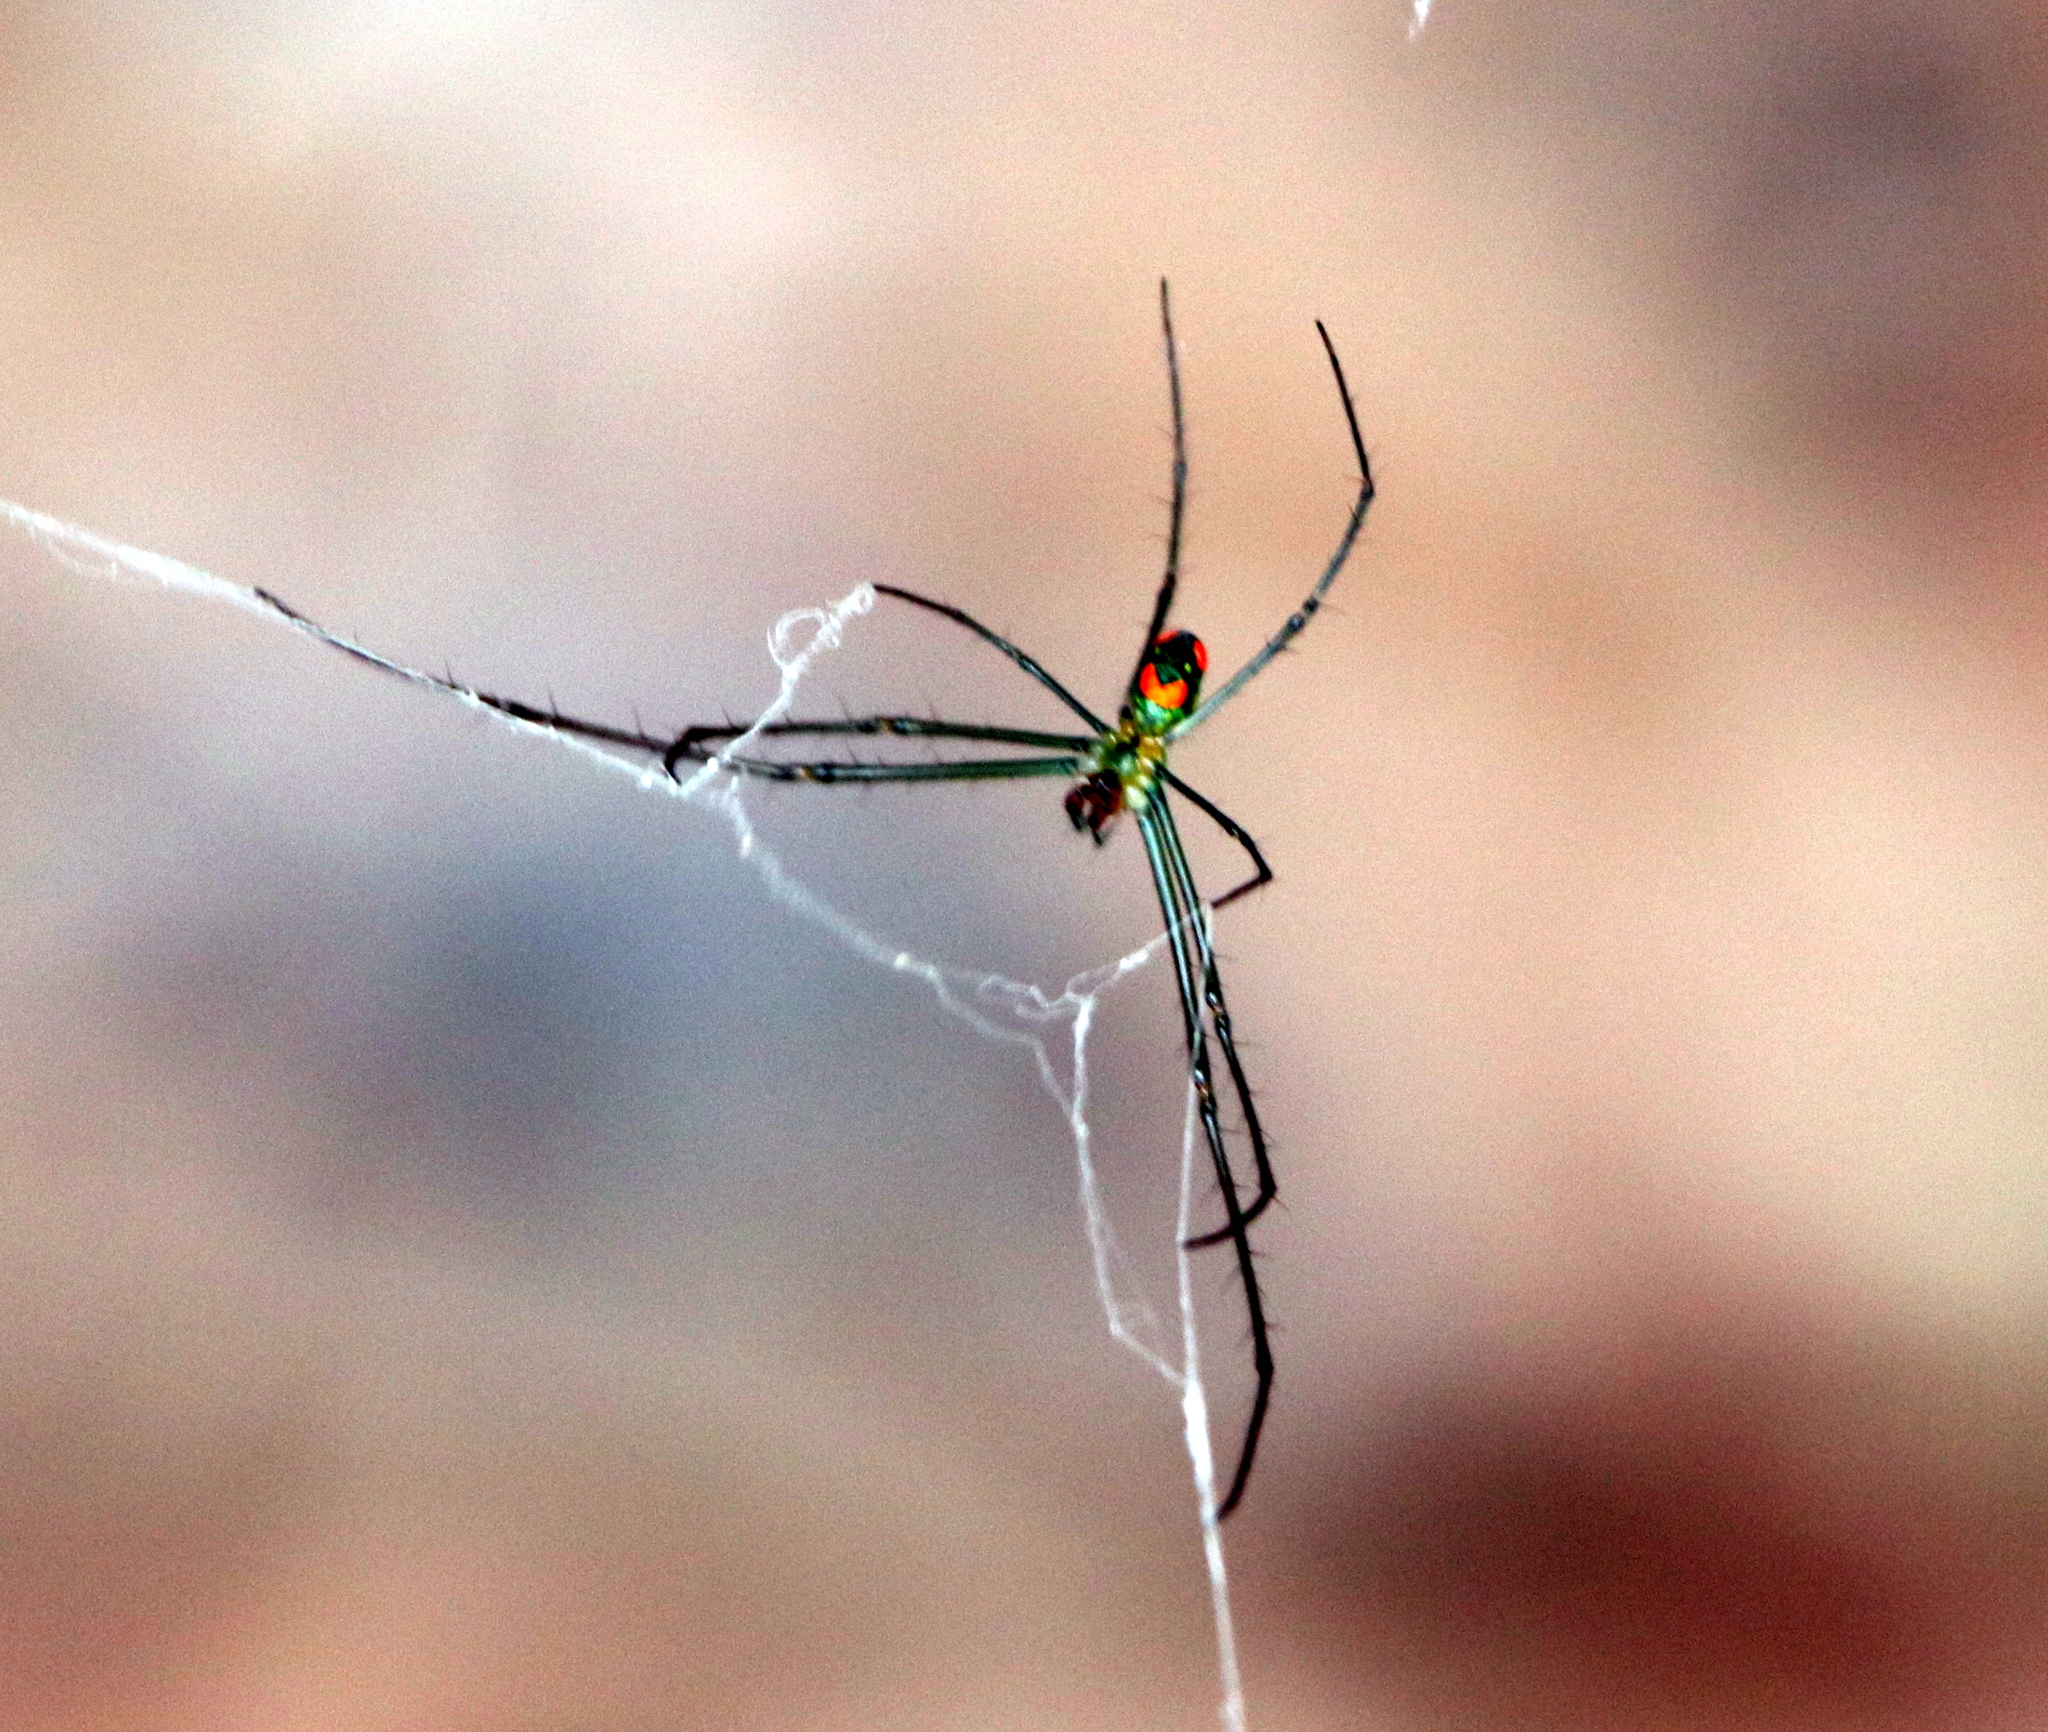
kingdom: Animalia
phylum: Arthropoda
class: Arachnida
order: Araneae
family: Tetragnathidae
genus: Leucauge
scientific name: Leucauge argyrobapta
